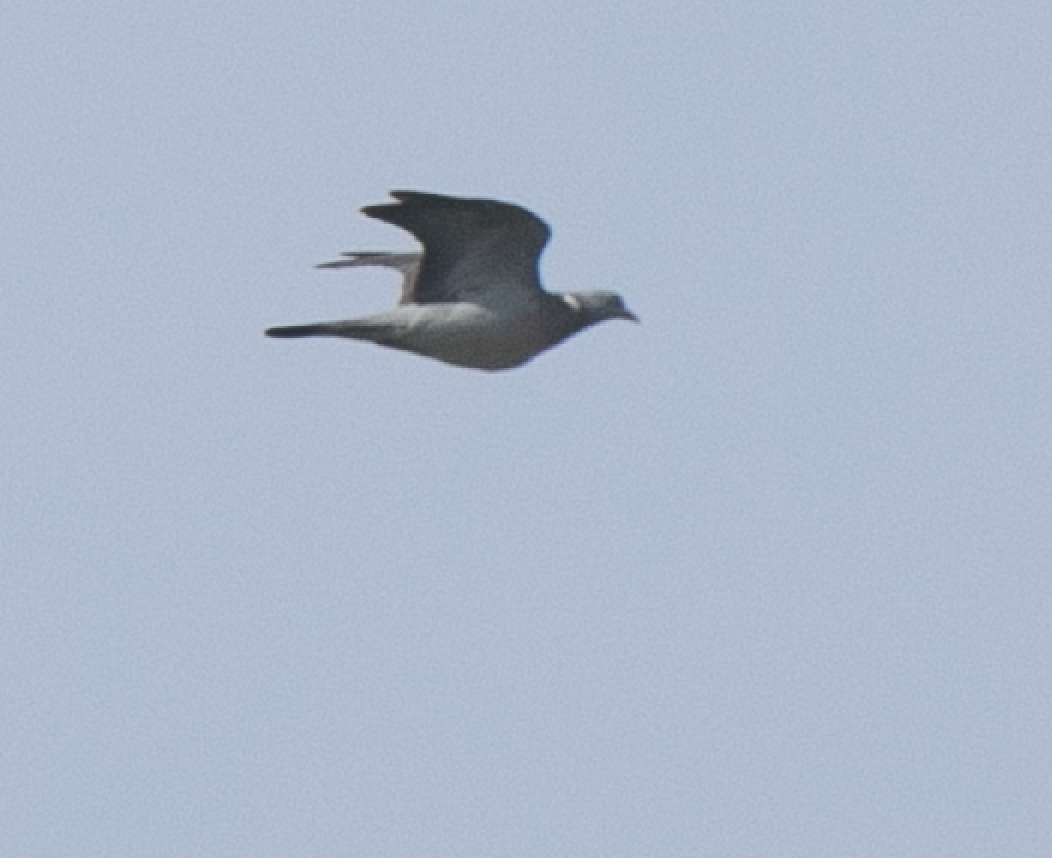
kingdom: Animalia
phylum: Chordata
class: Aves
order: Columbiformes
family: Columbidae
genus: Columba
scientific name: Columba palumbus
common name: Common wood pigeon
